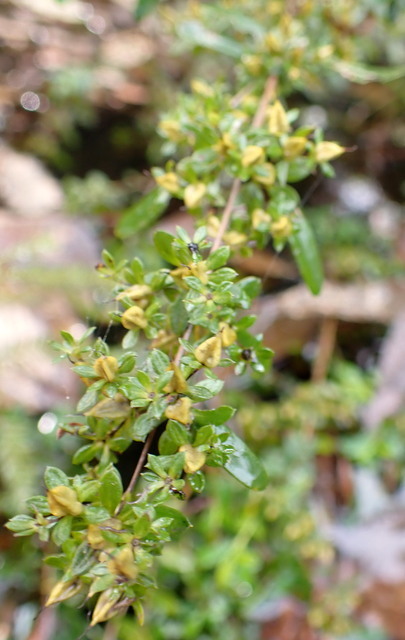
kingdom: Plantae
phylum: Tracheophyta
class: Magnoliopsida
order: Malpighiales
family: Hypericaceae
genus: Hypericum
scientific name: Hypericum galioides
